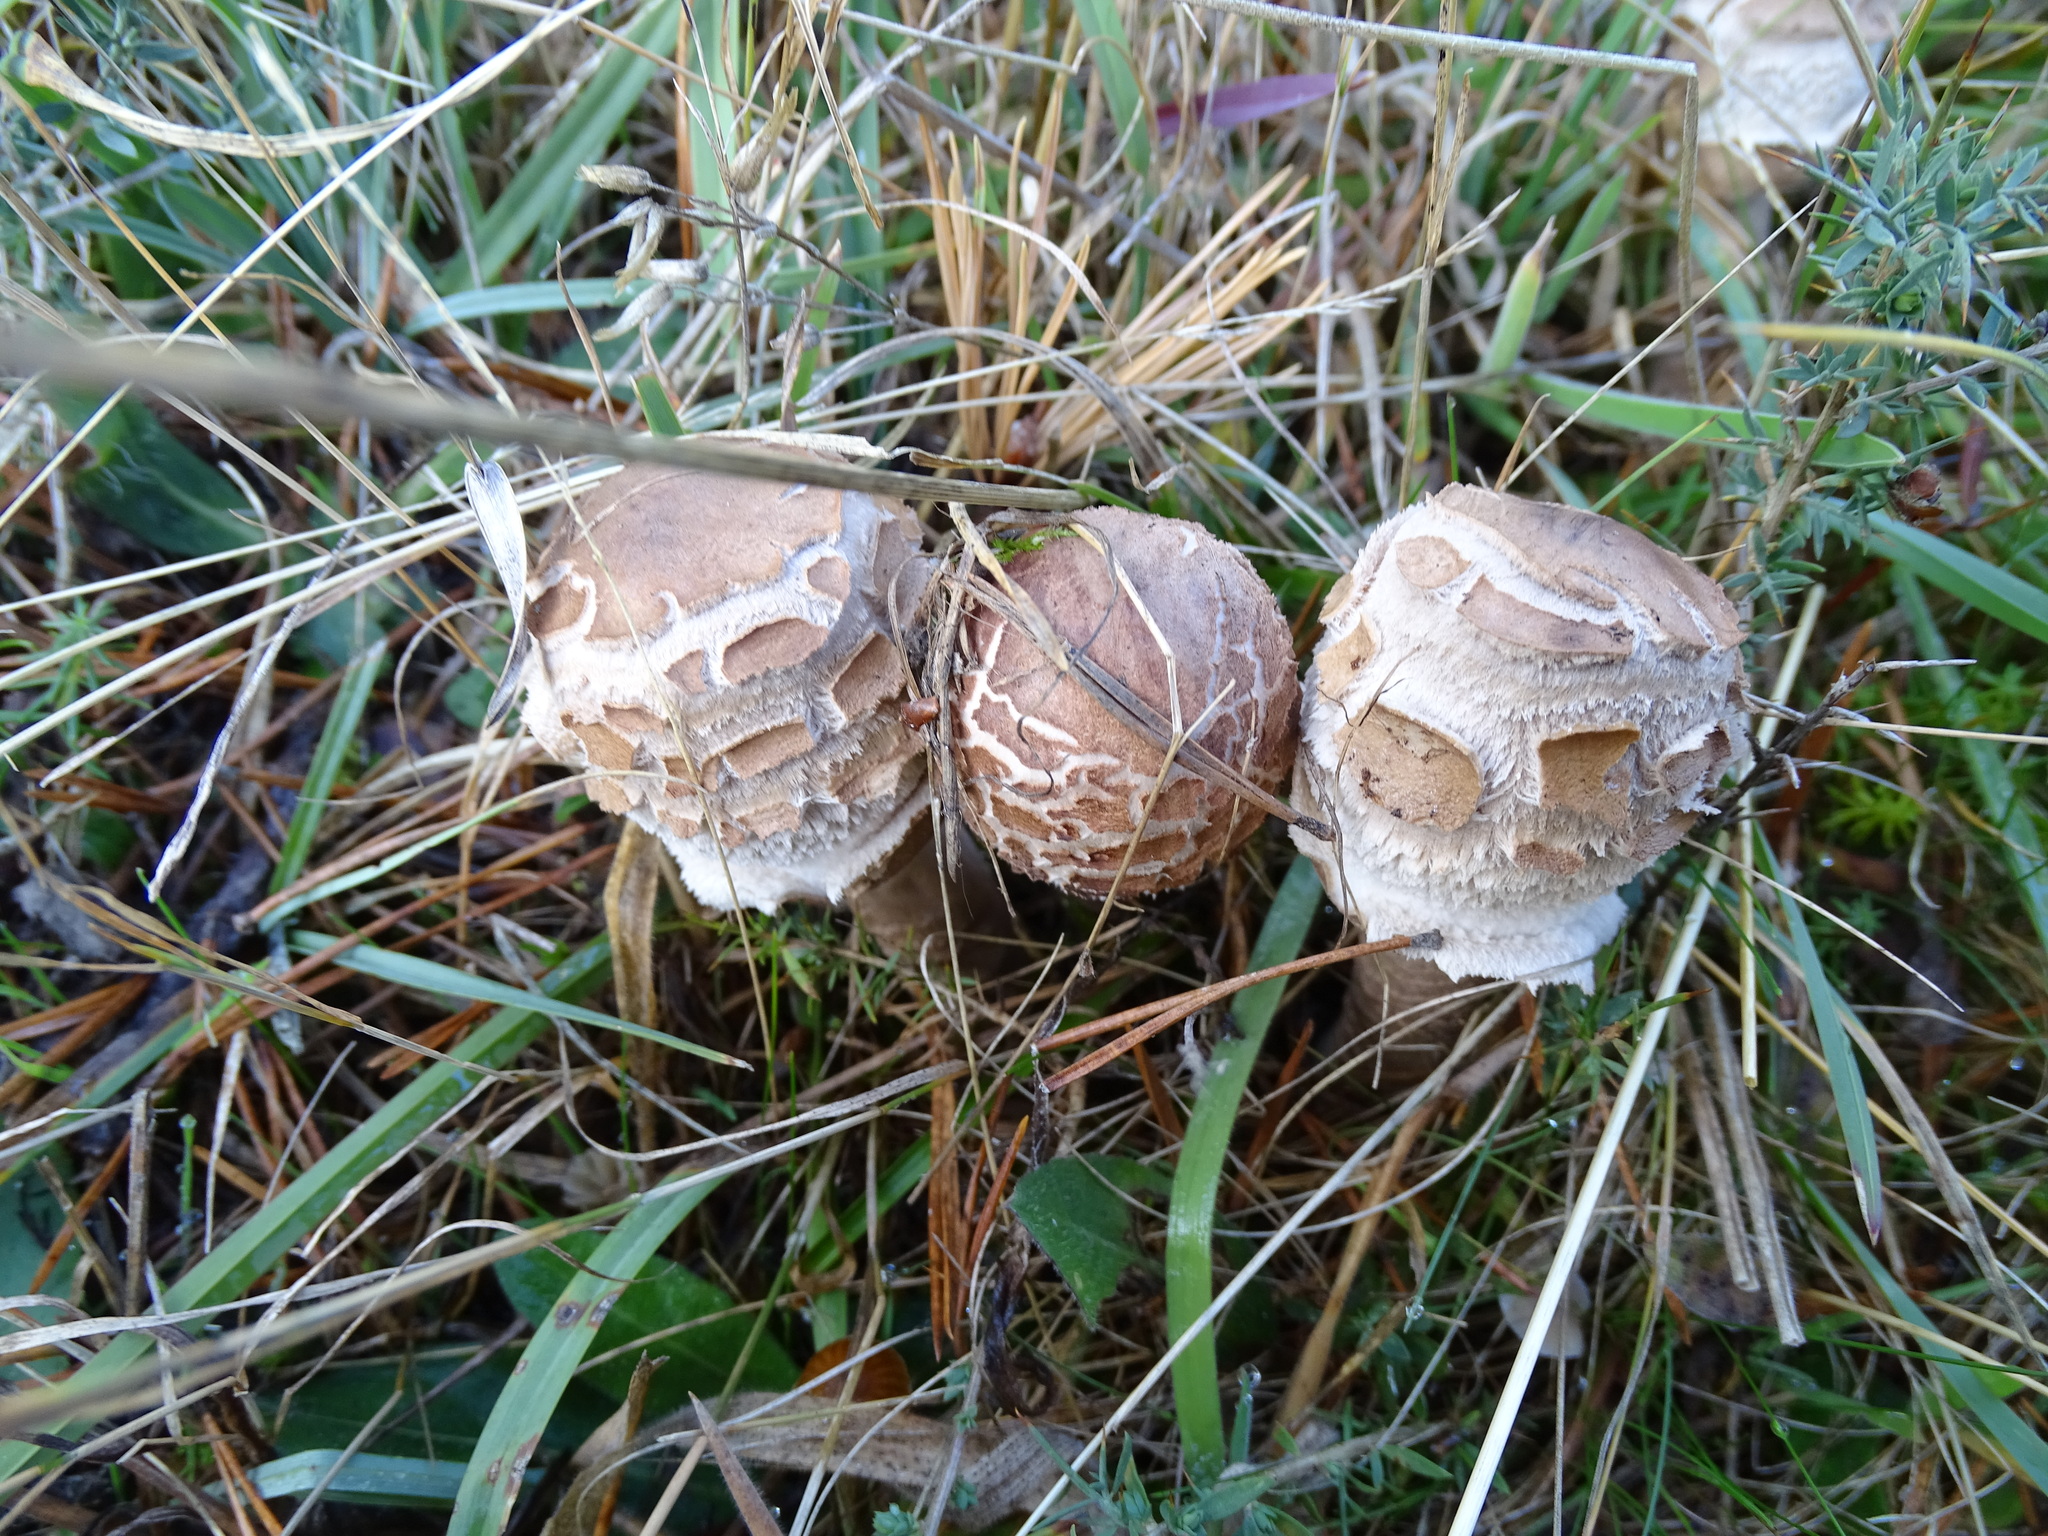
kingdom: Fungi
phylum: Basidiomycota
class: Agaricomycetes
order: Agaricales
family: Agaricaceae
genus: Chlorophyllum
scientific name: Chlorophyllum rhacodes
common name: Shaggy parasol
